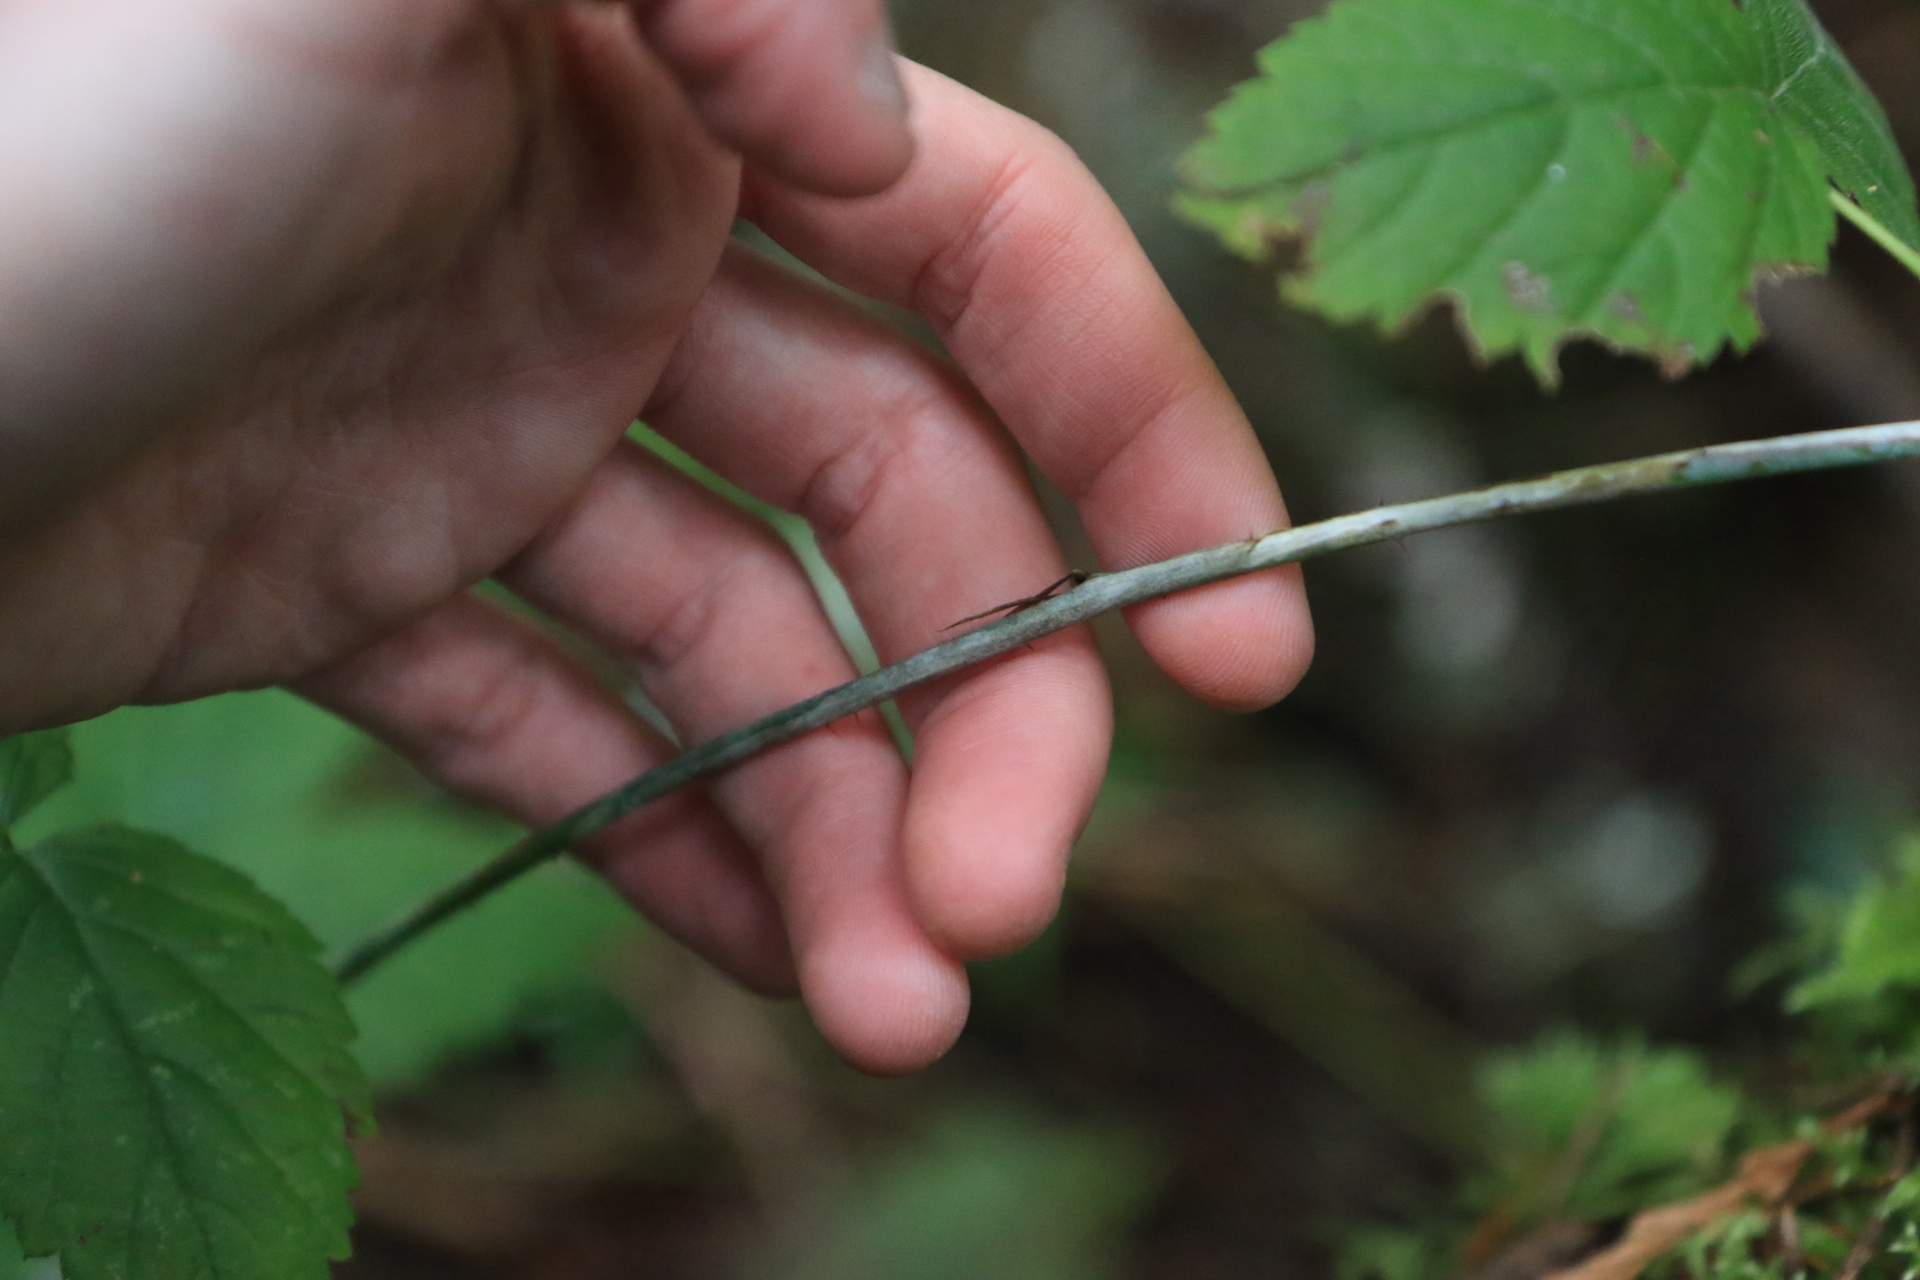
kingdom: Plantae
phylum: Tracheophyta
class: Magnoliopsida
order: Rosales
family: Rosaceae
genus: Rubus
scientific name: Rubus ursinus
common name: Pacific blackberry
